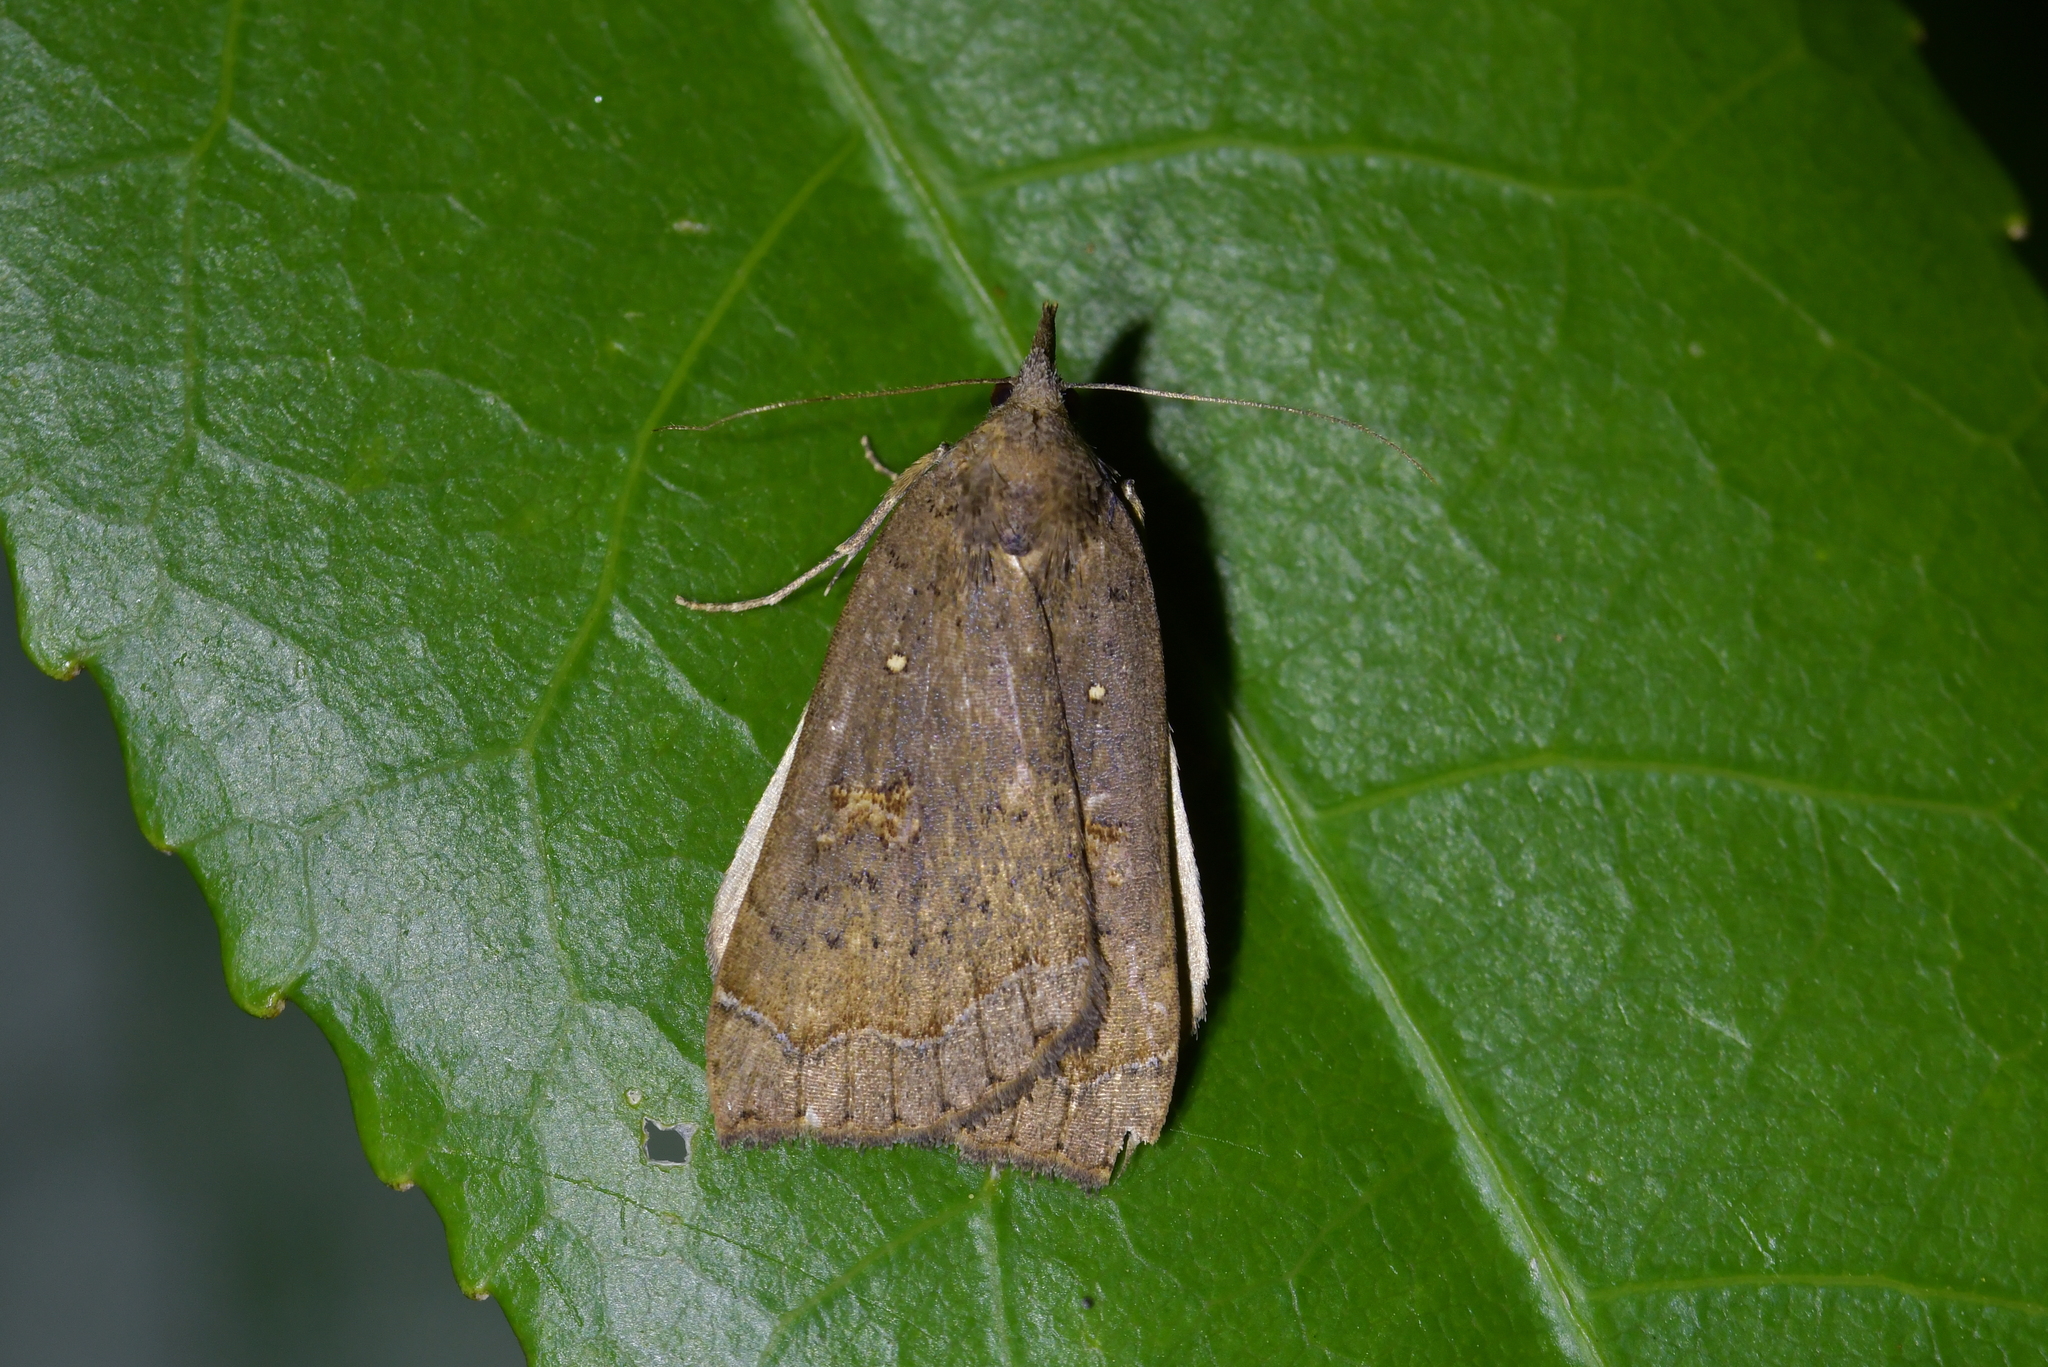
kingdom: Animalia
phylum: Arthropoda
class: Insecta
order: Lepidoptera
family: Erebidae
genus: Rhapsa
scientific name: Rhapsa scotosialis
